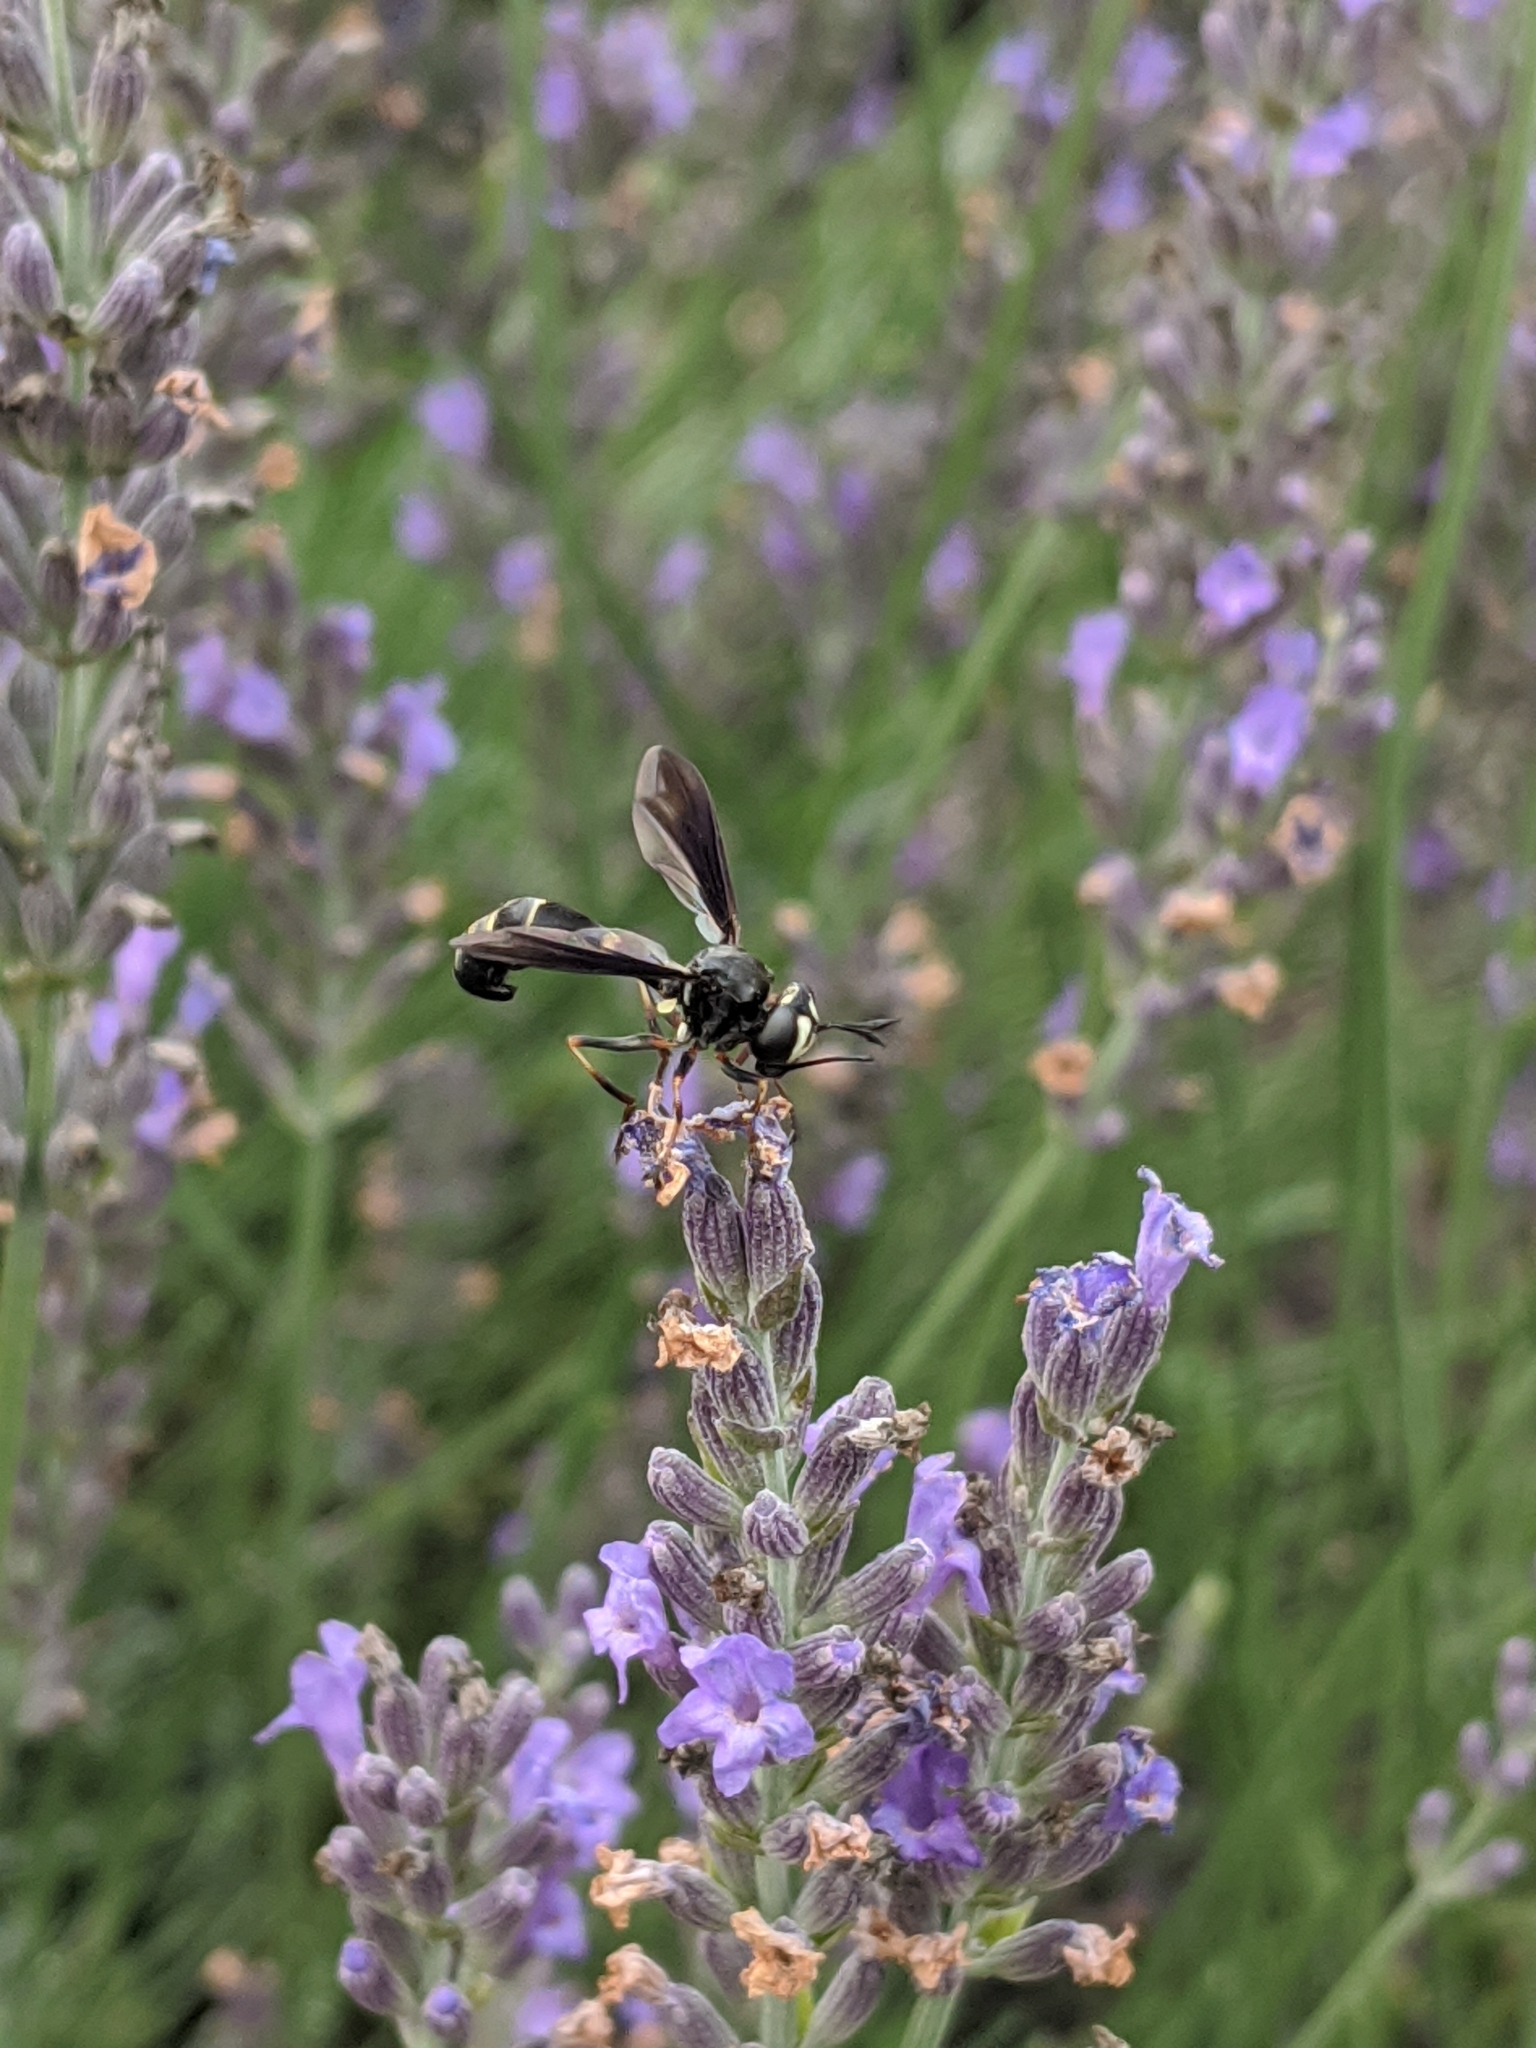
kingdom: Animalia
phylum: Arthropoda
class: Insecta
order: Diptera
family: Conopidae
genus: Physocephala
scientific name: Physocephala tibialis
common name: Common eastern physocephala
